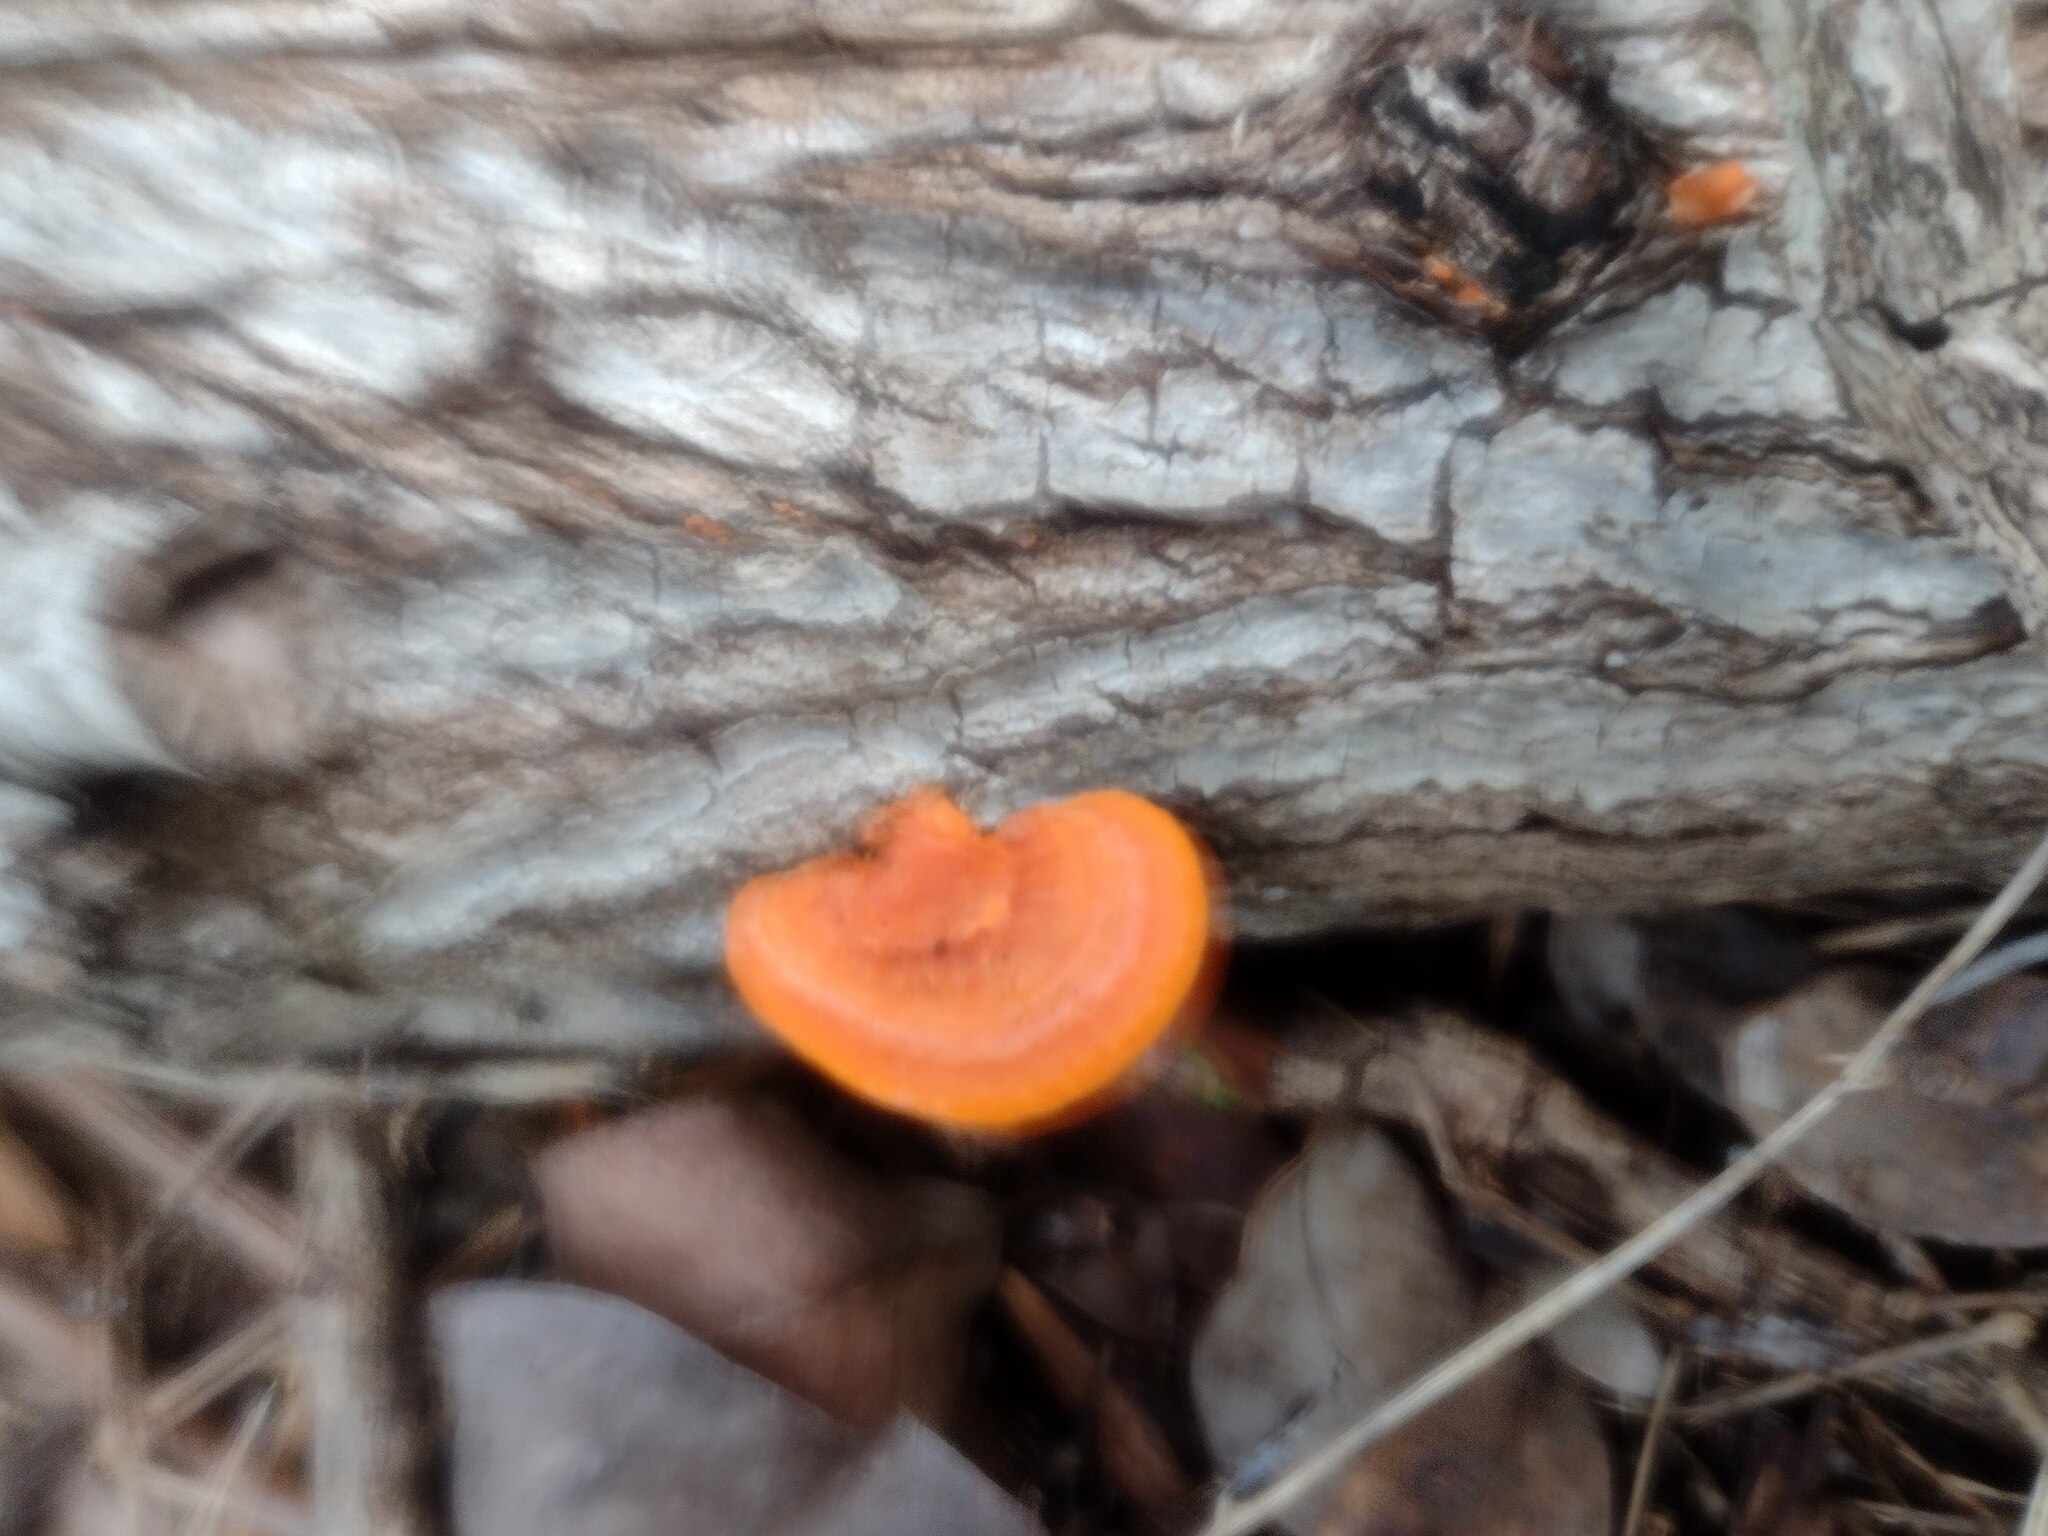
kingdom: Fungi
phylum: Basidiomycota
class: Agaricomycetes
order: Polyporales
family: Polyporaceae
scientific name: Polyporaceae
